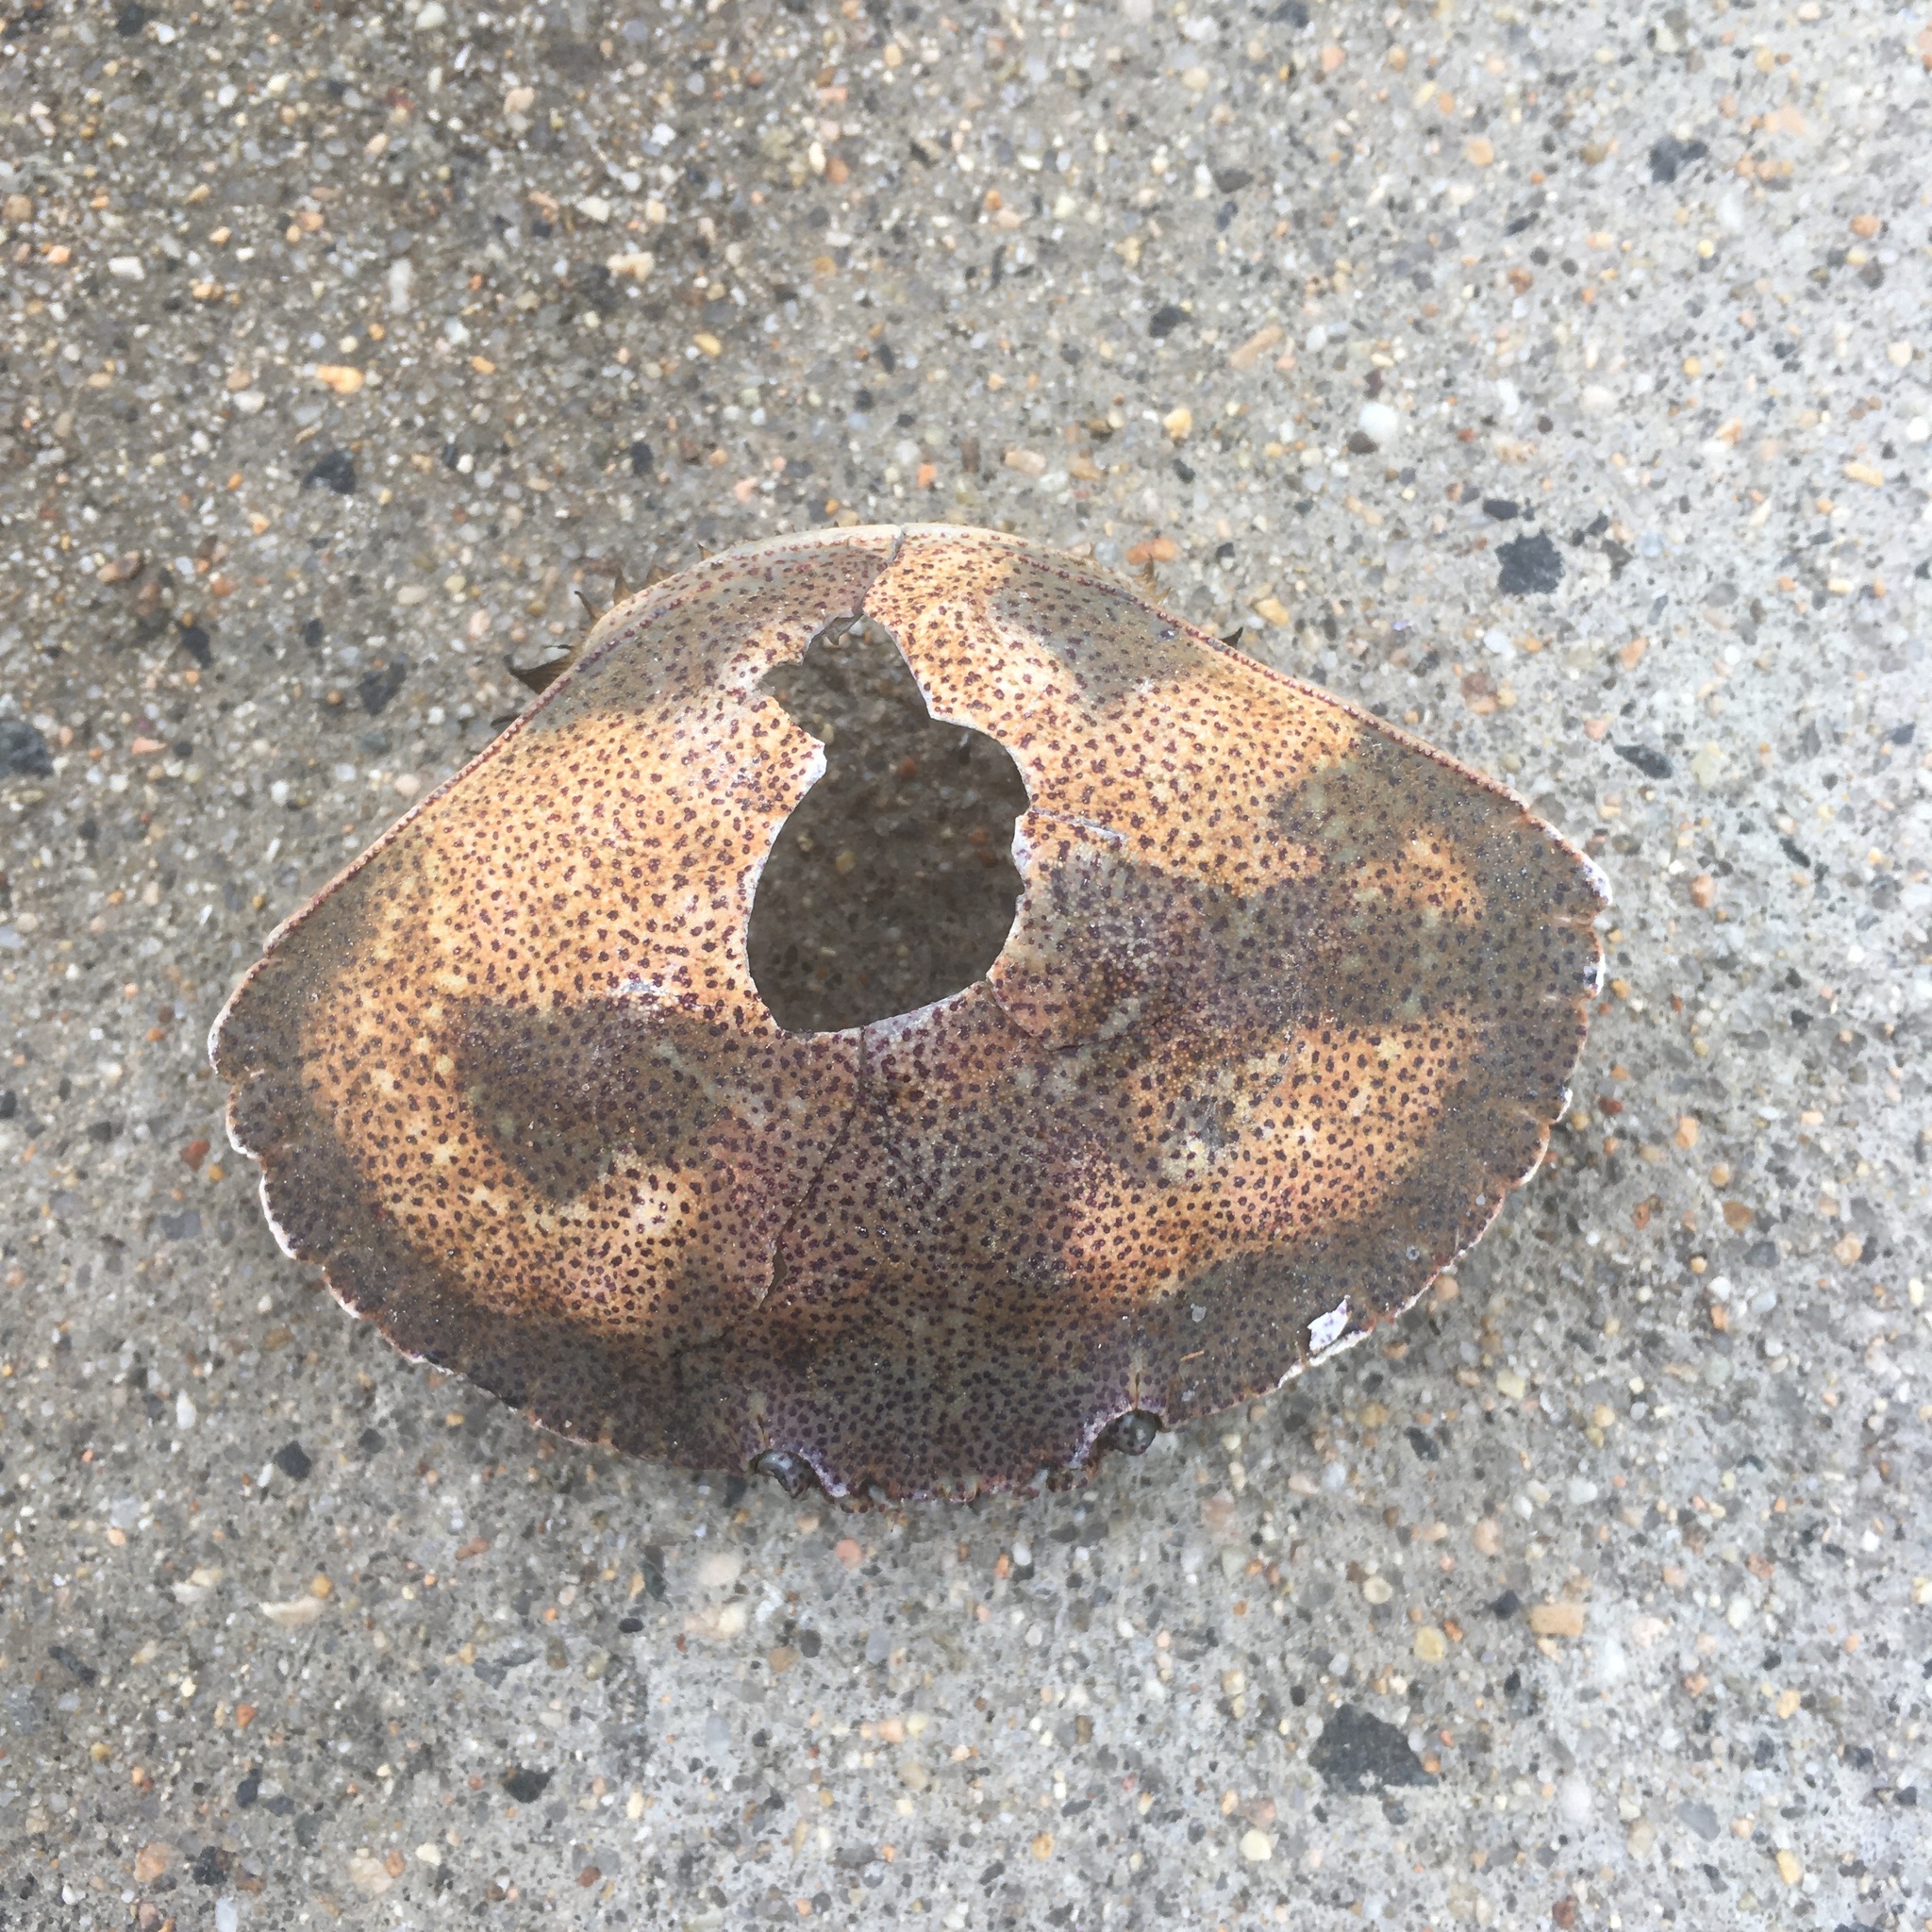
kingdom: Animalia
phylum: Arthropoda
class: Malacostraca
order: Decapoda
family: Cancridae
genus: Cancer
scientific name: Cancer irroratus
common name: Atlantic rock crab
